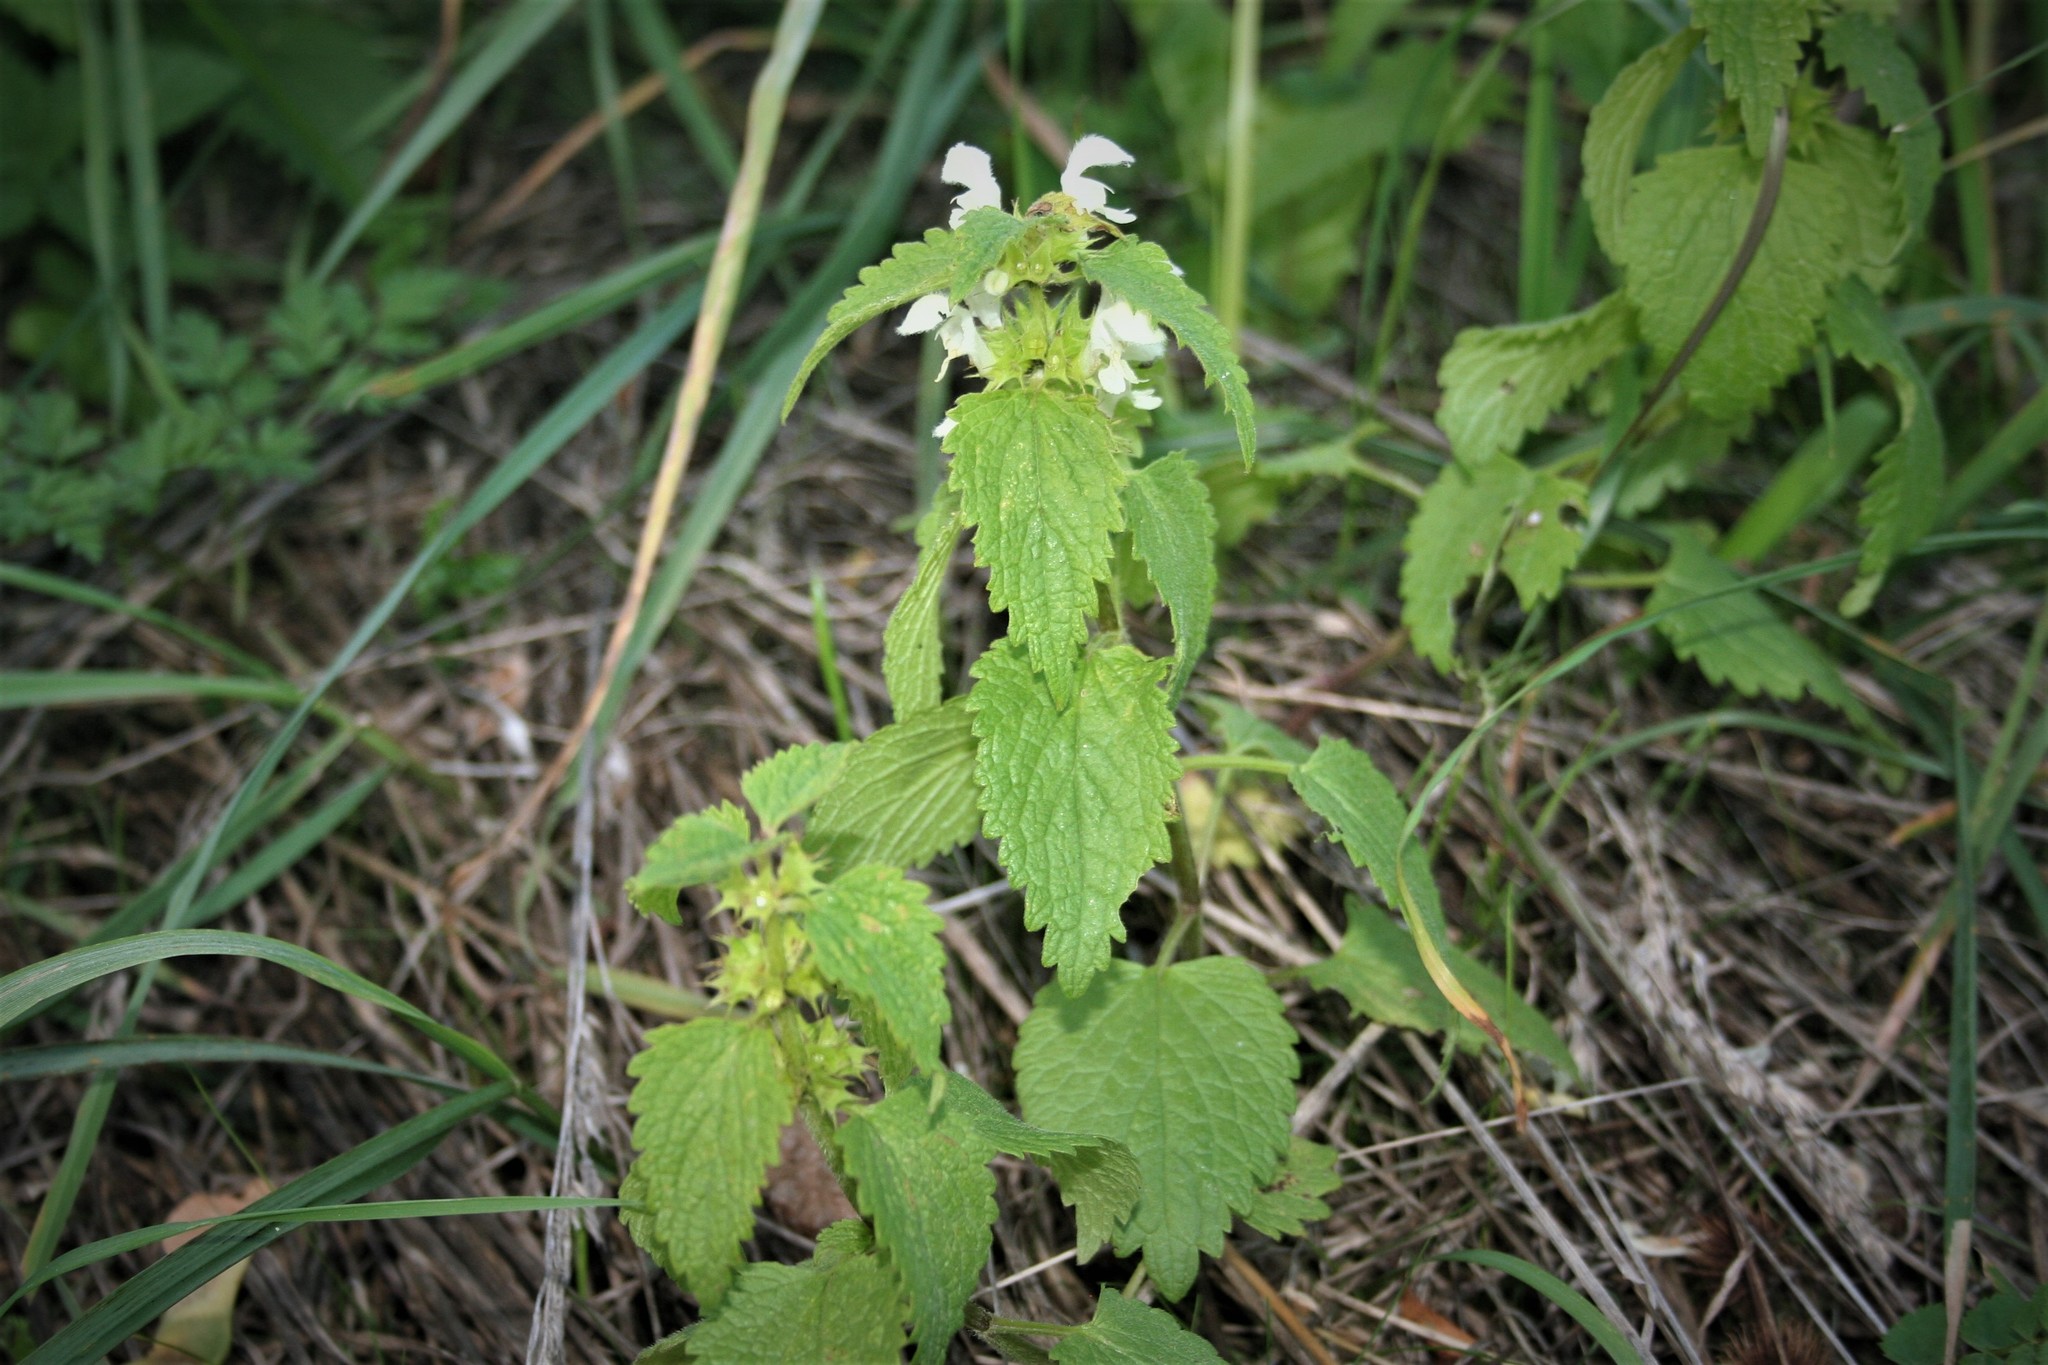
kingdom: Plantae
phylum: Tracheophyta
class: Magnoliopsida
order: Lamiales
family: Lamiaceae
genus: Lamium
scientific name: Lamium album
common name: White dead-nettle
